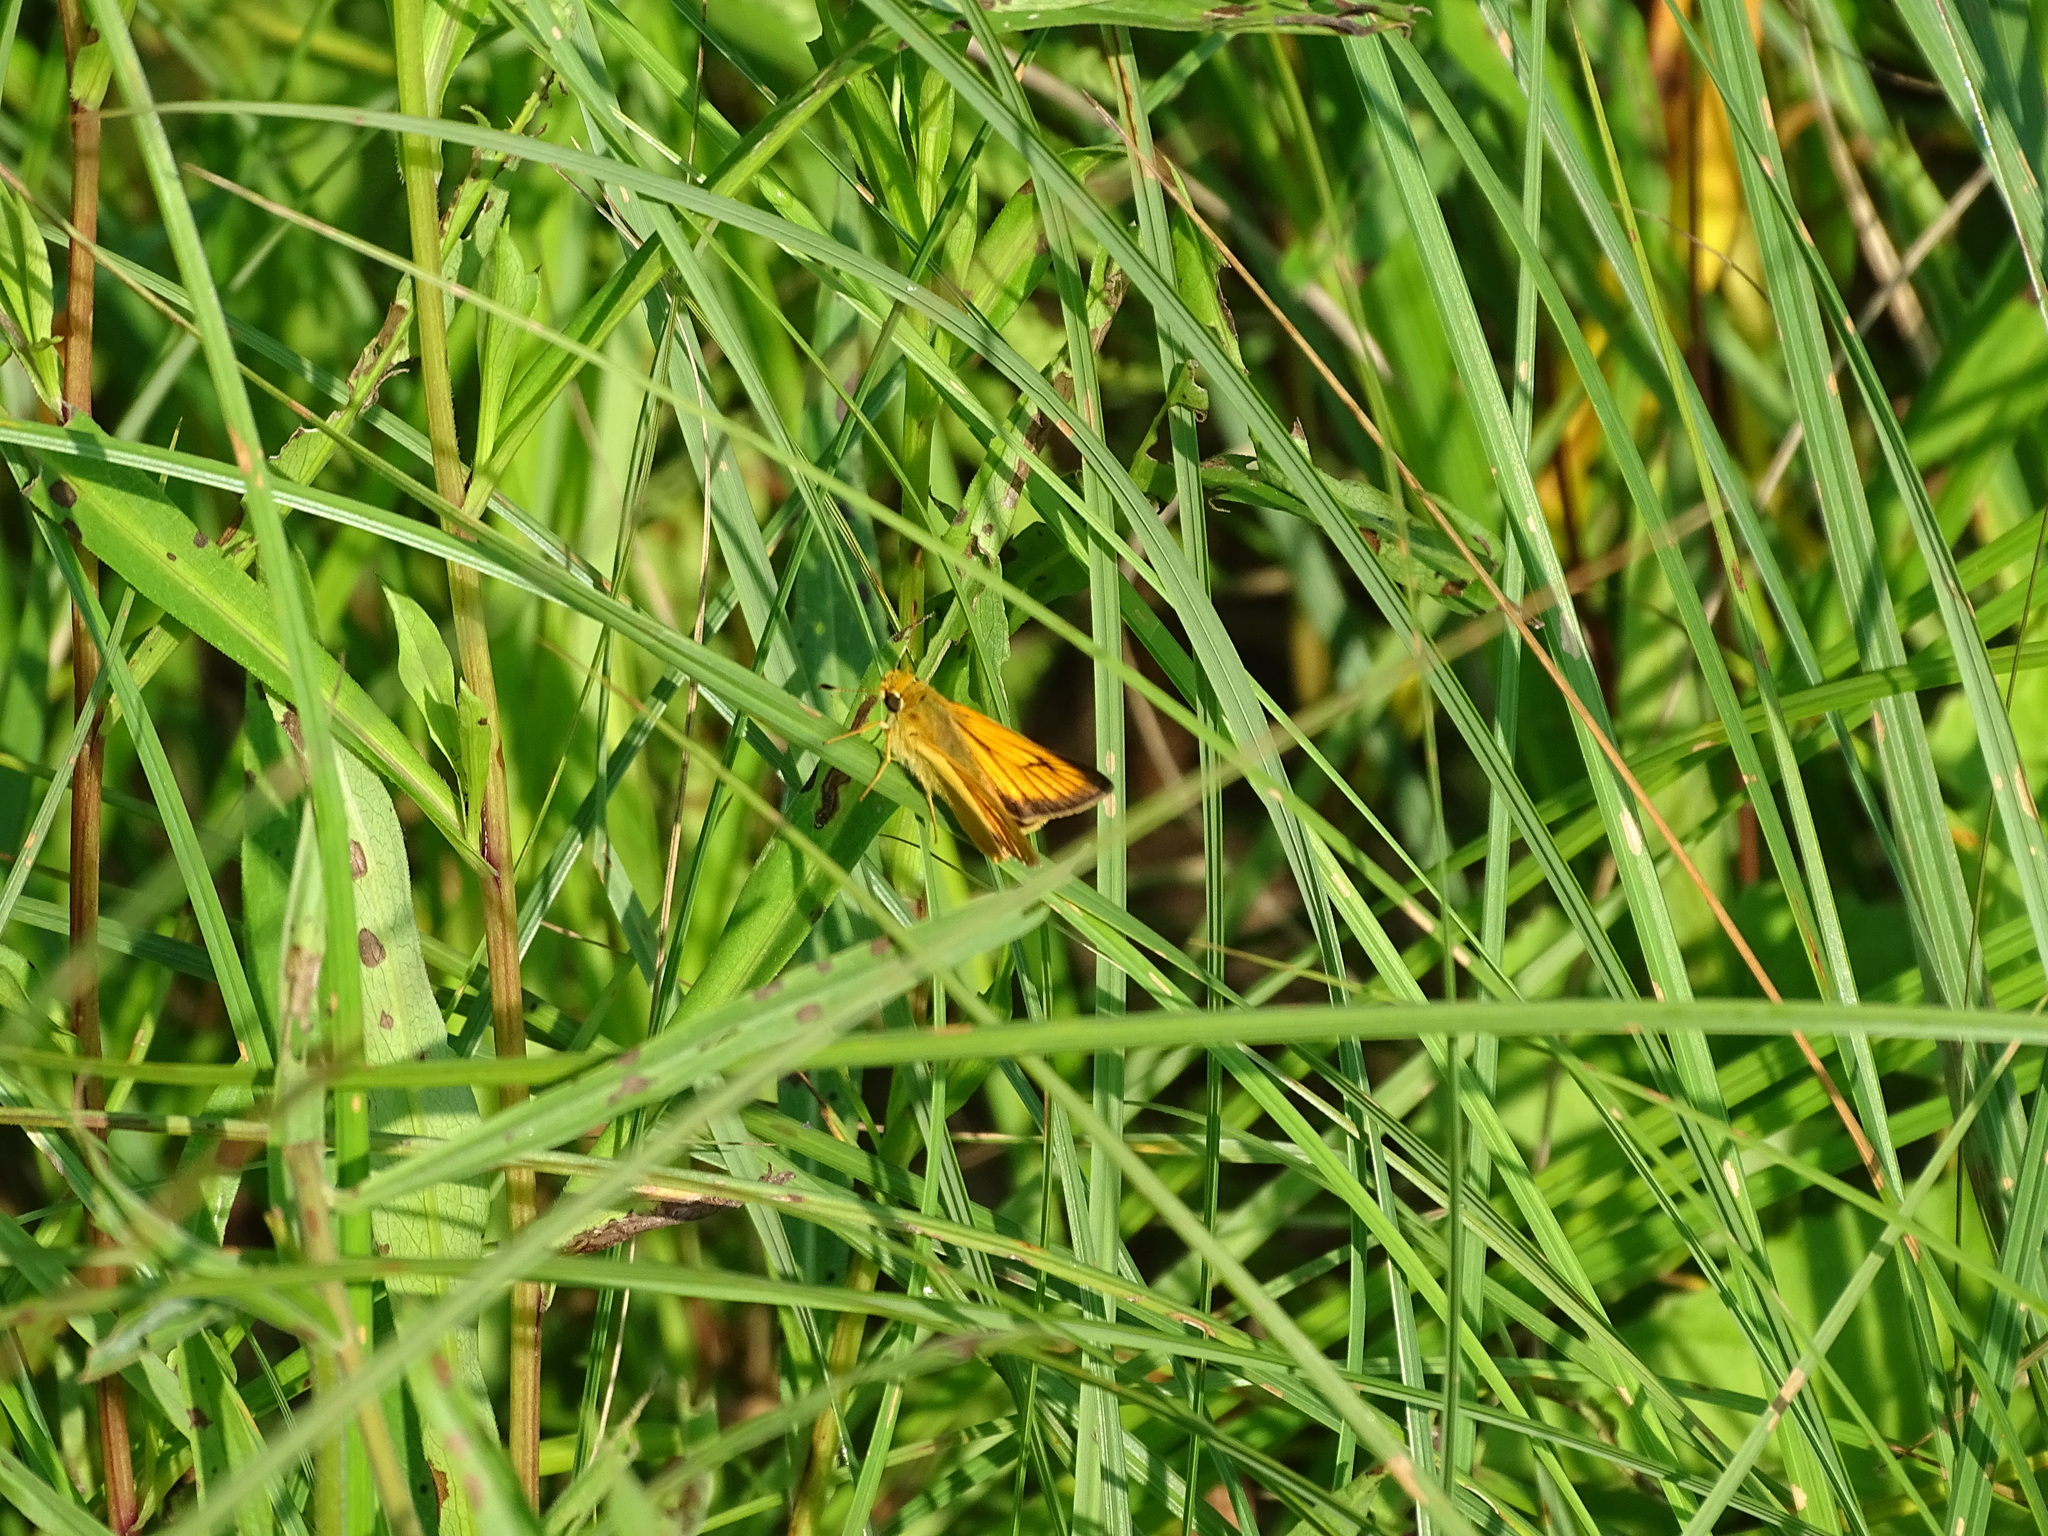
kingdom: Animalia
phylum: Arthropoda
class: Insecta
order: Lepidoptera
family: Hesperiidae
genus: Atrytone
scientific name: Atrytone delaware
